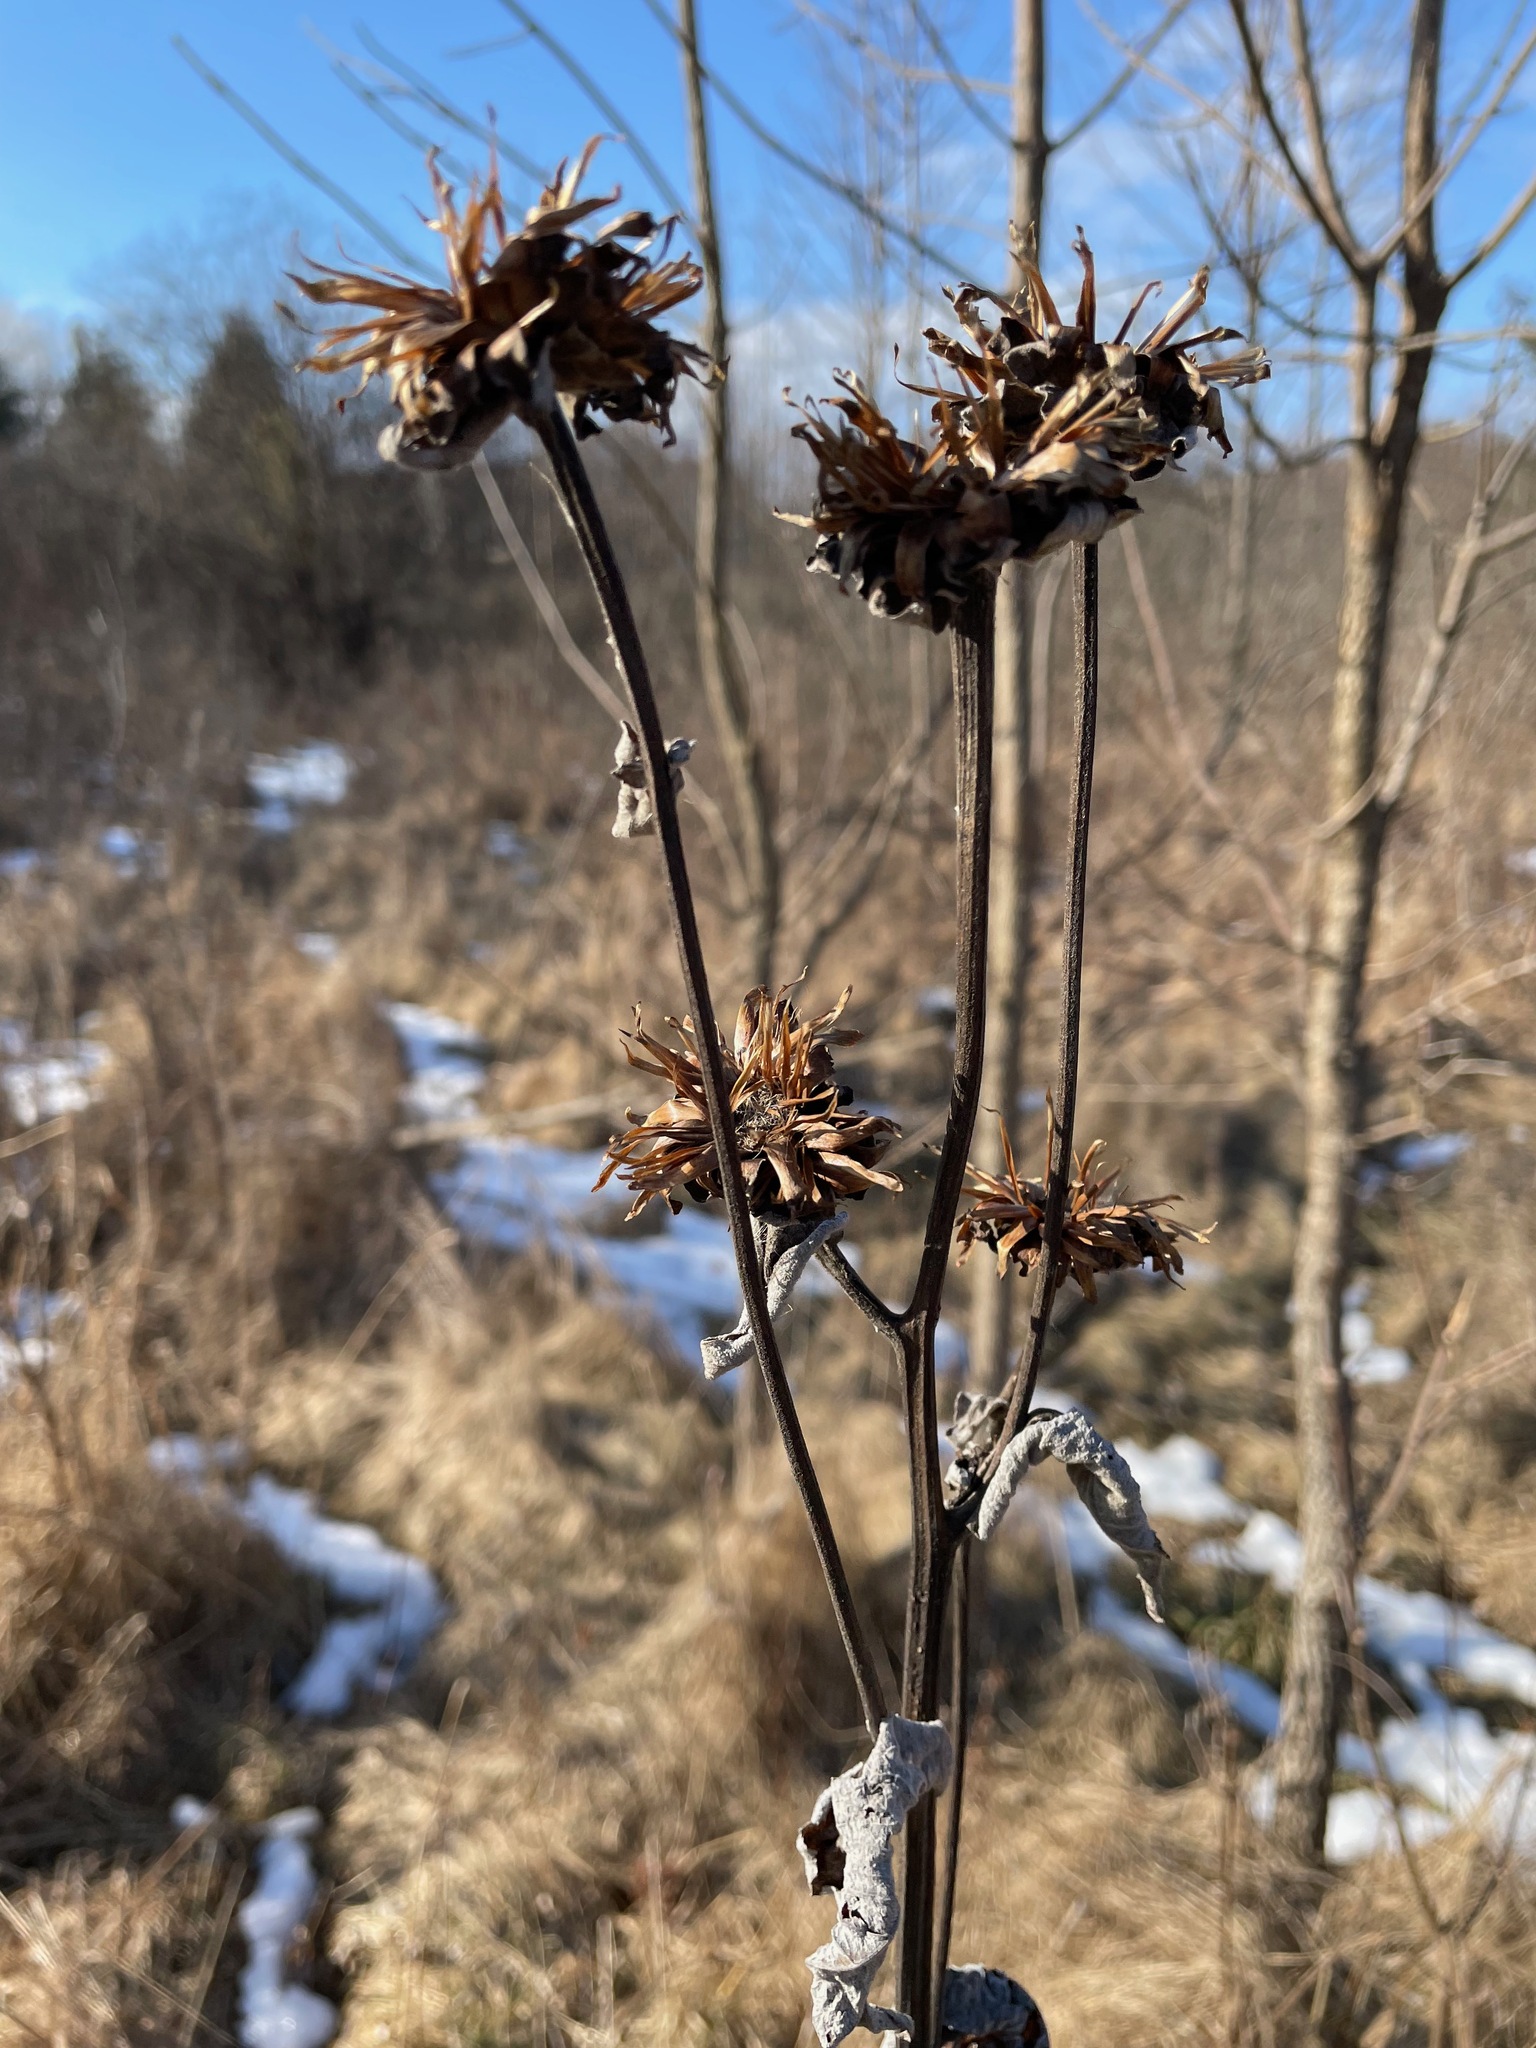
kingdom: Plantae
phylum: Tracheophyta
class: Magnoliopsida
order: Asterales
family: Asteraceae
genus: Inula
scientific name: Inula helenium
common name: Elecampane
